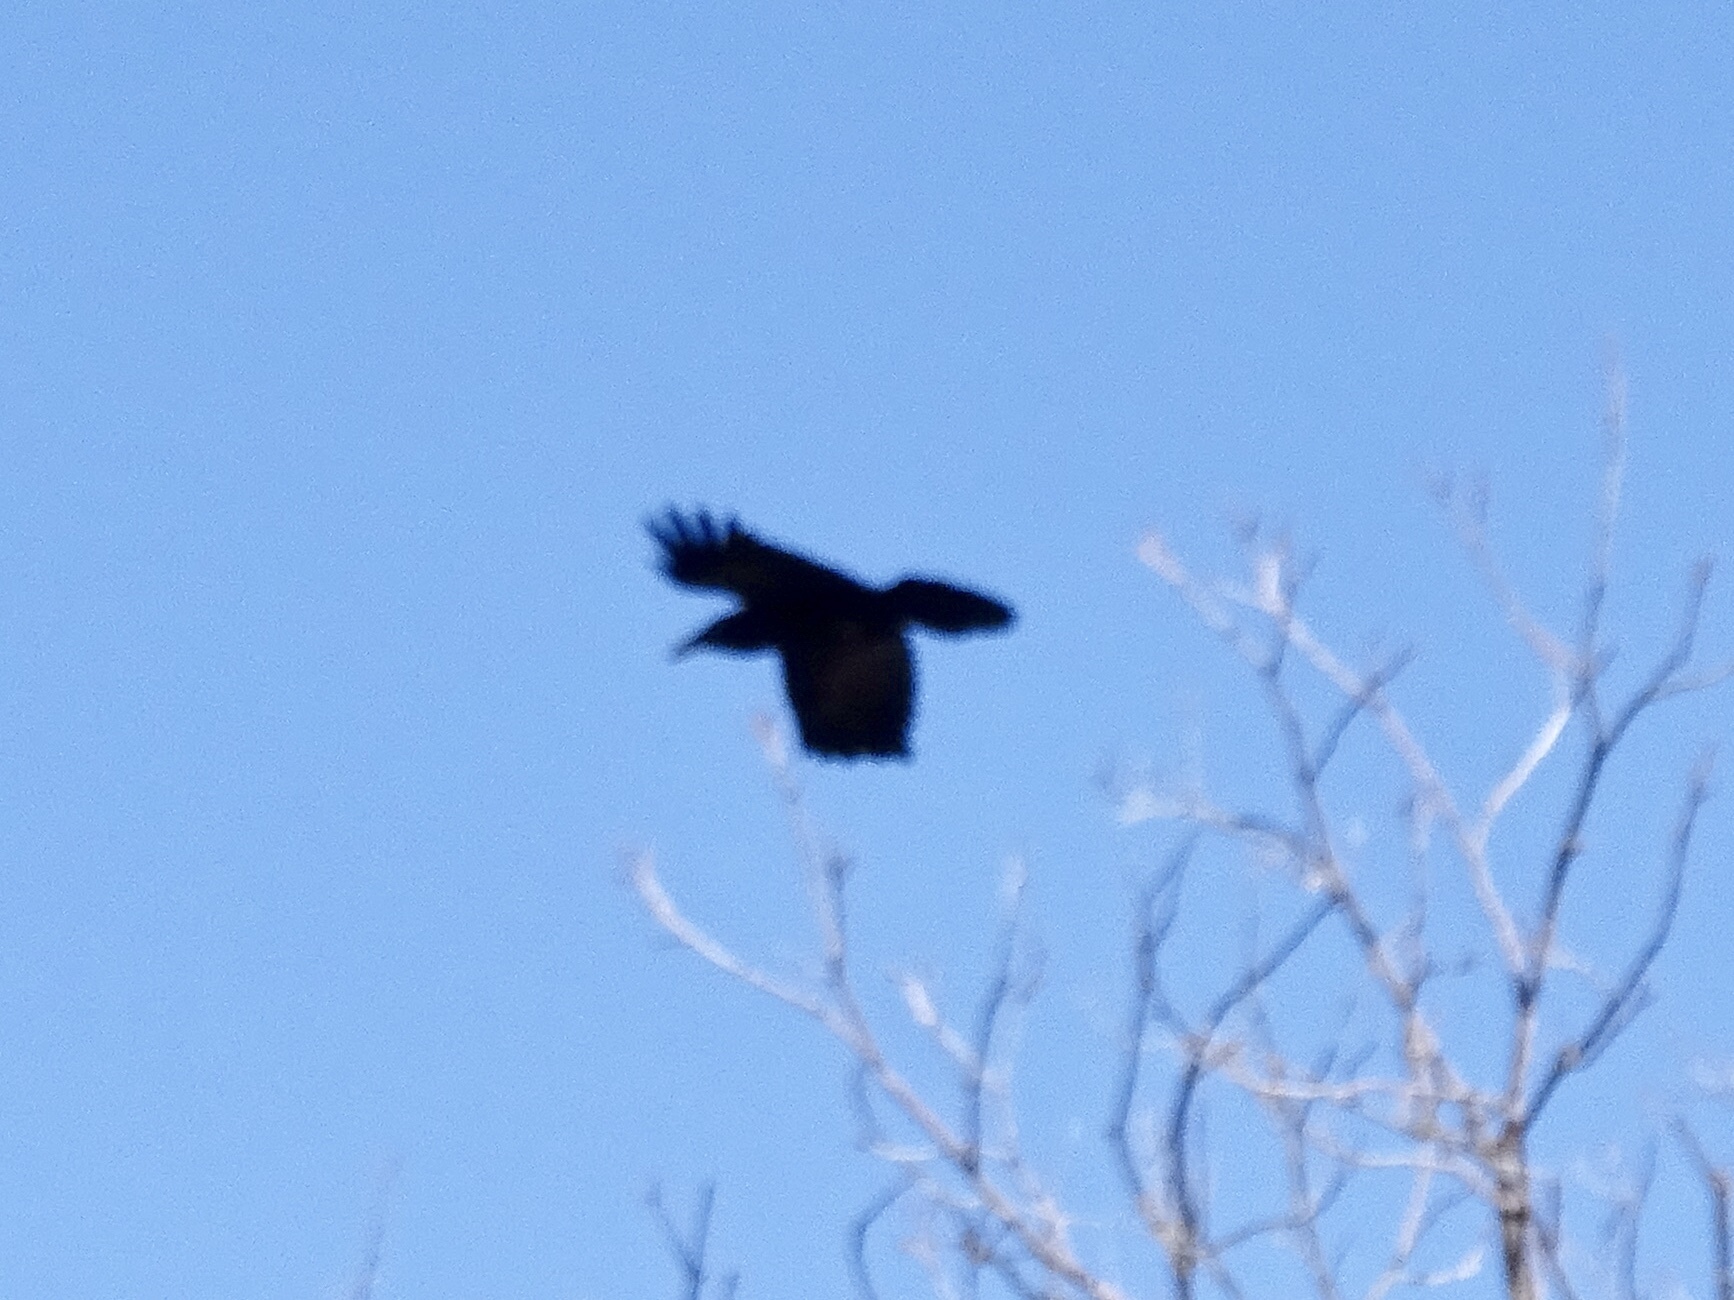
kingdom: Animalia
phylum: Chordata
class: Aves
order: Passeriformes
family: Corvidae
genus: Corvus
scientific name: Corvus corax
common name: Common raven
